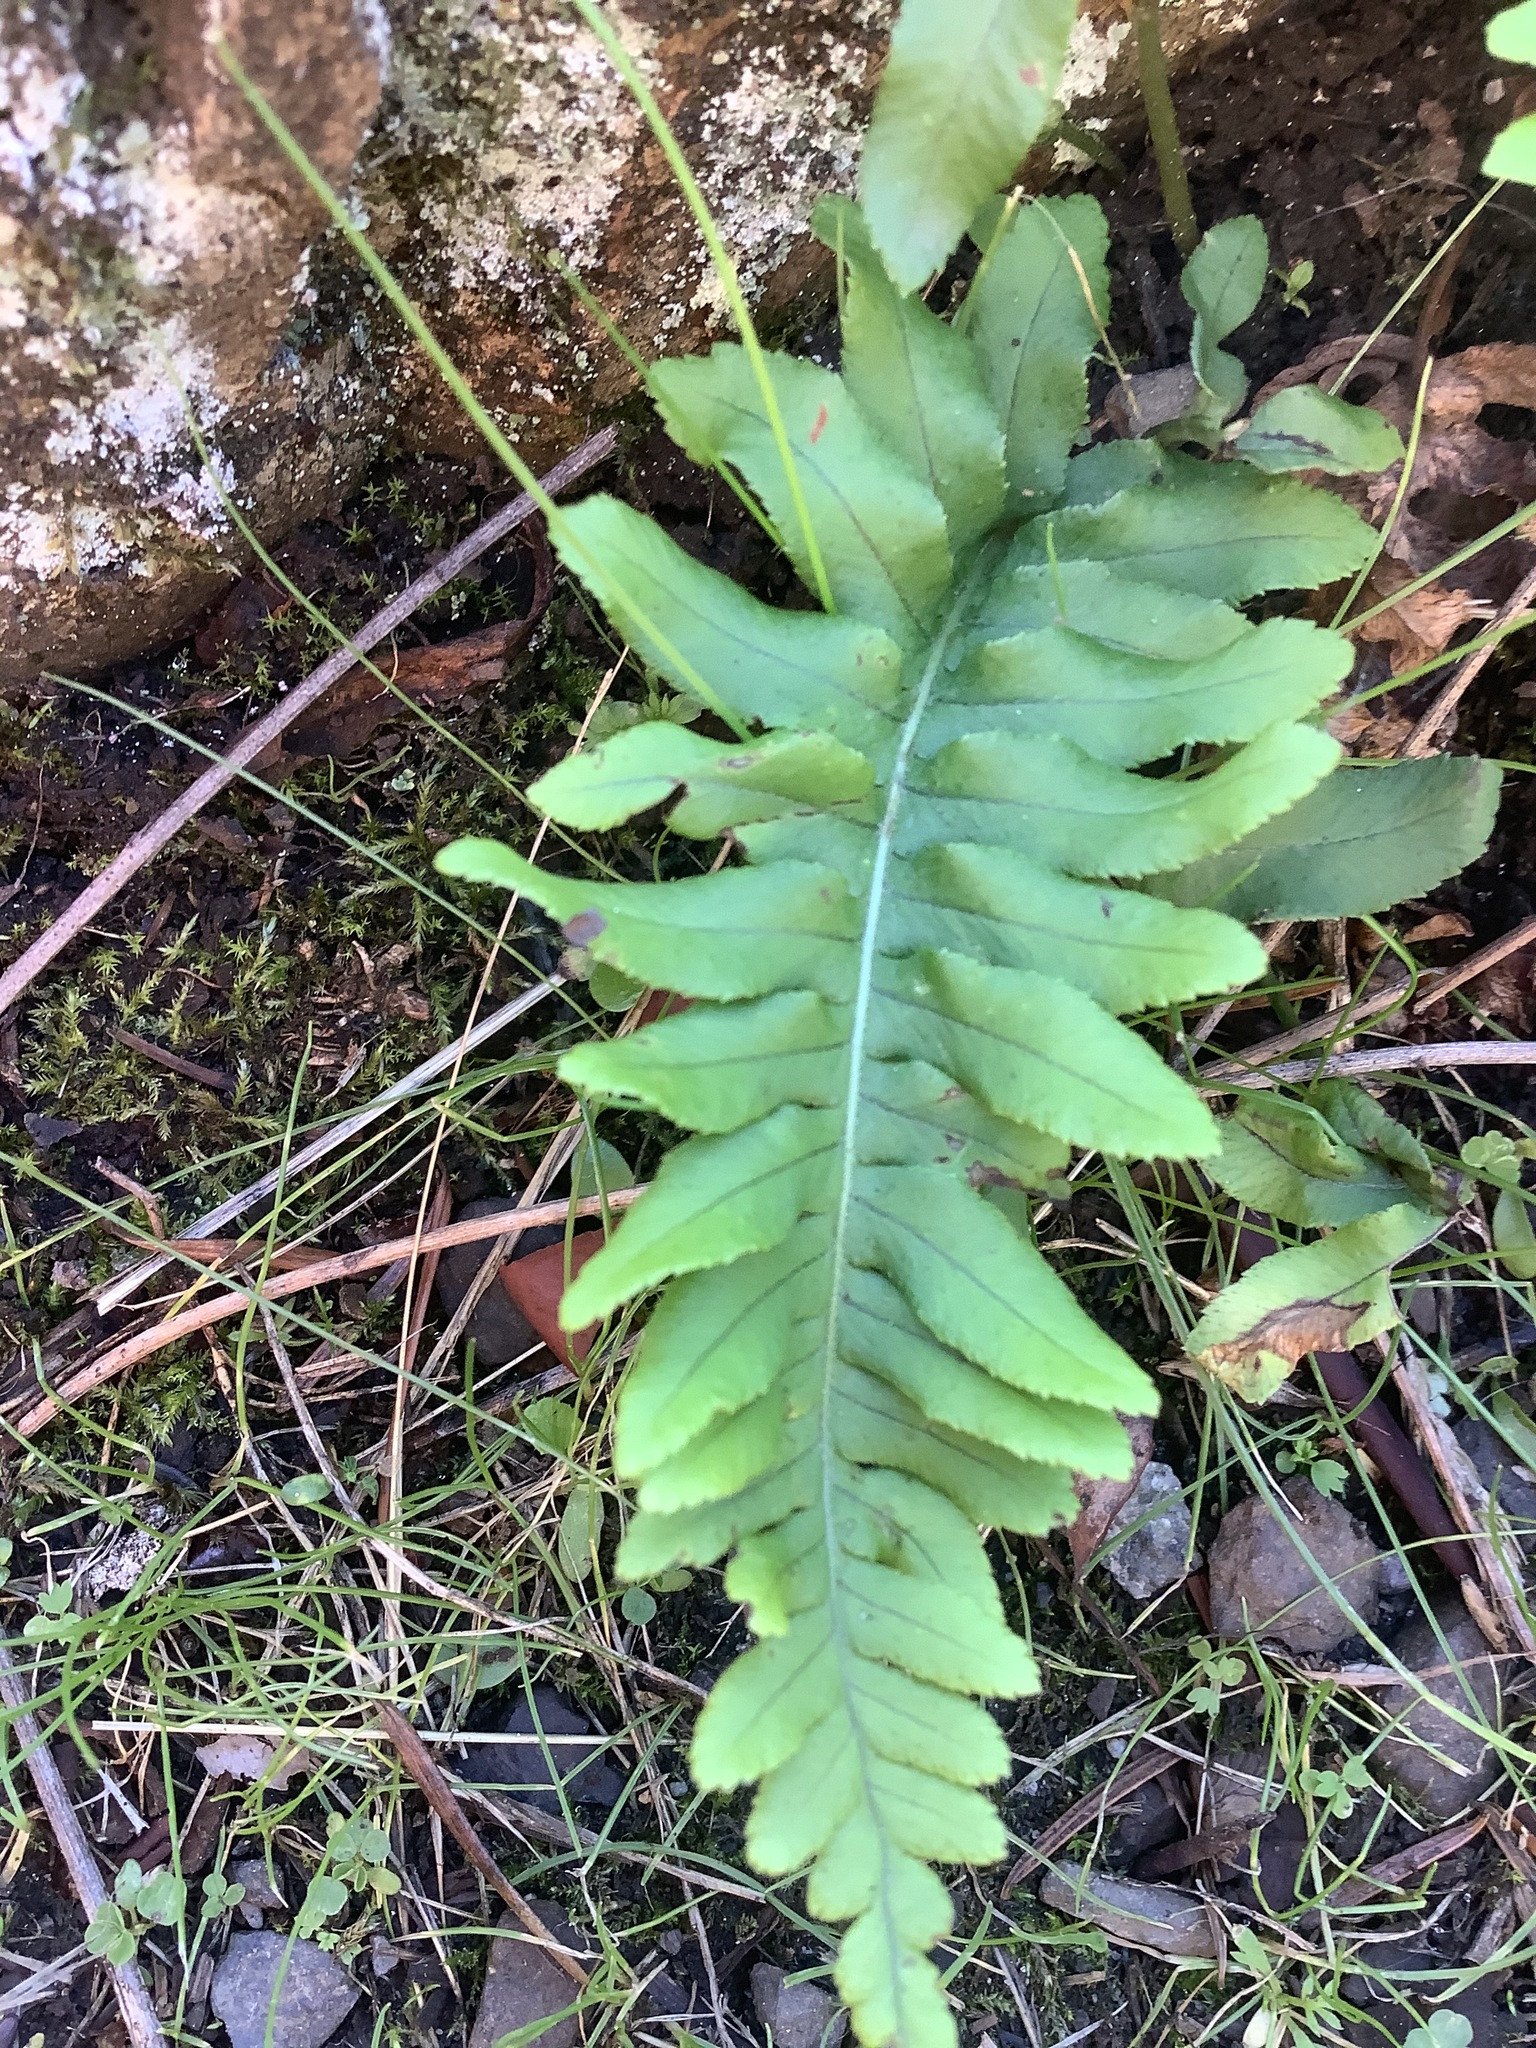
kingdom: Plantae
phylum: Tracheophyta
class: Polypodiopsida
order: Polypodiales
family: Polypodiaceae
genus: Polypodium
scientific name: Polypodium glycyrrhiza
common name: Licorice fern
